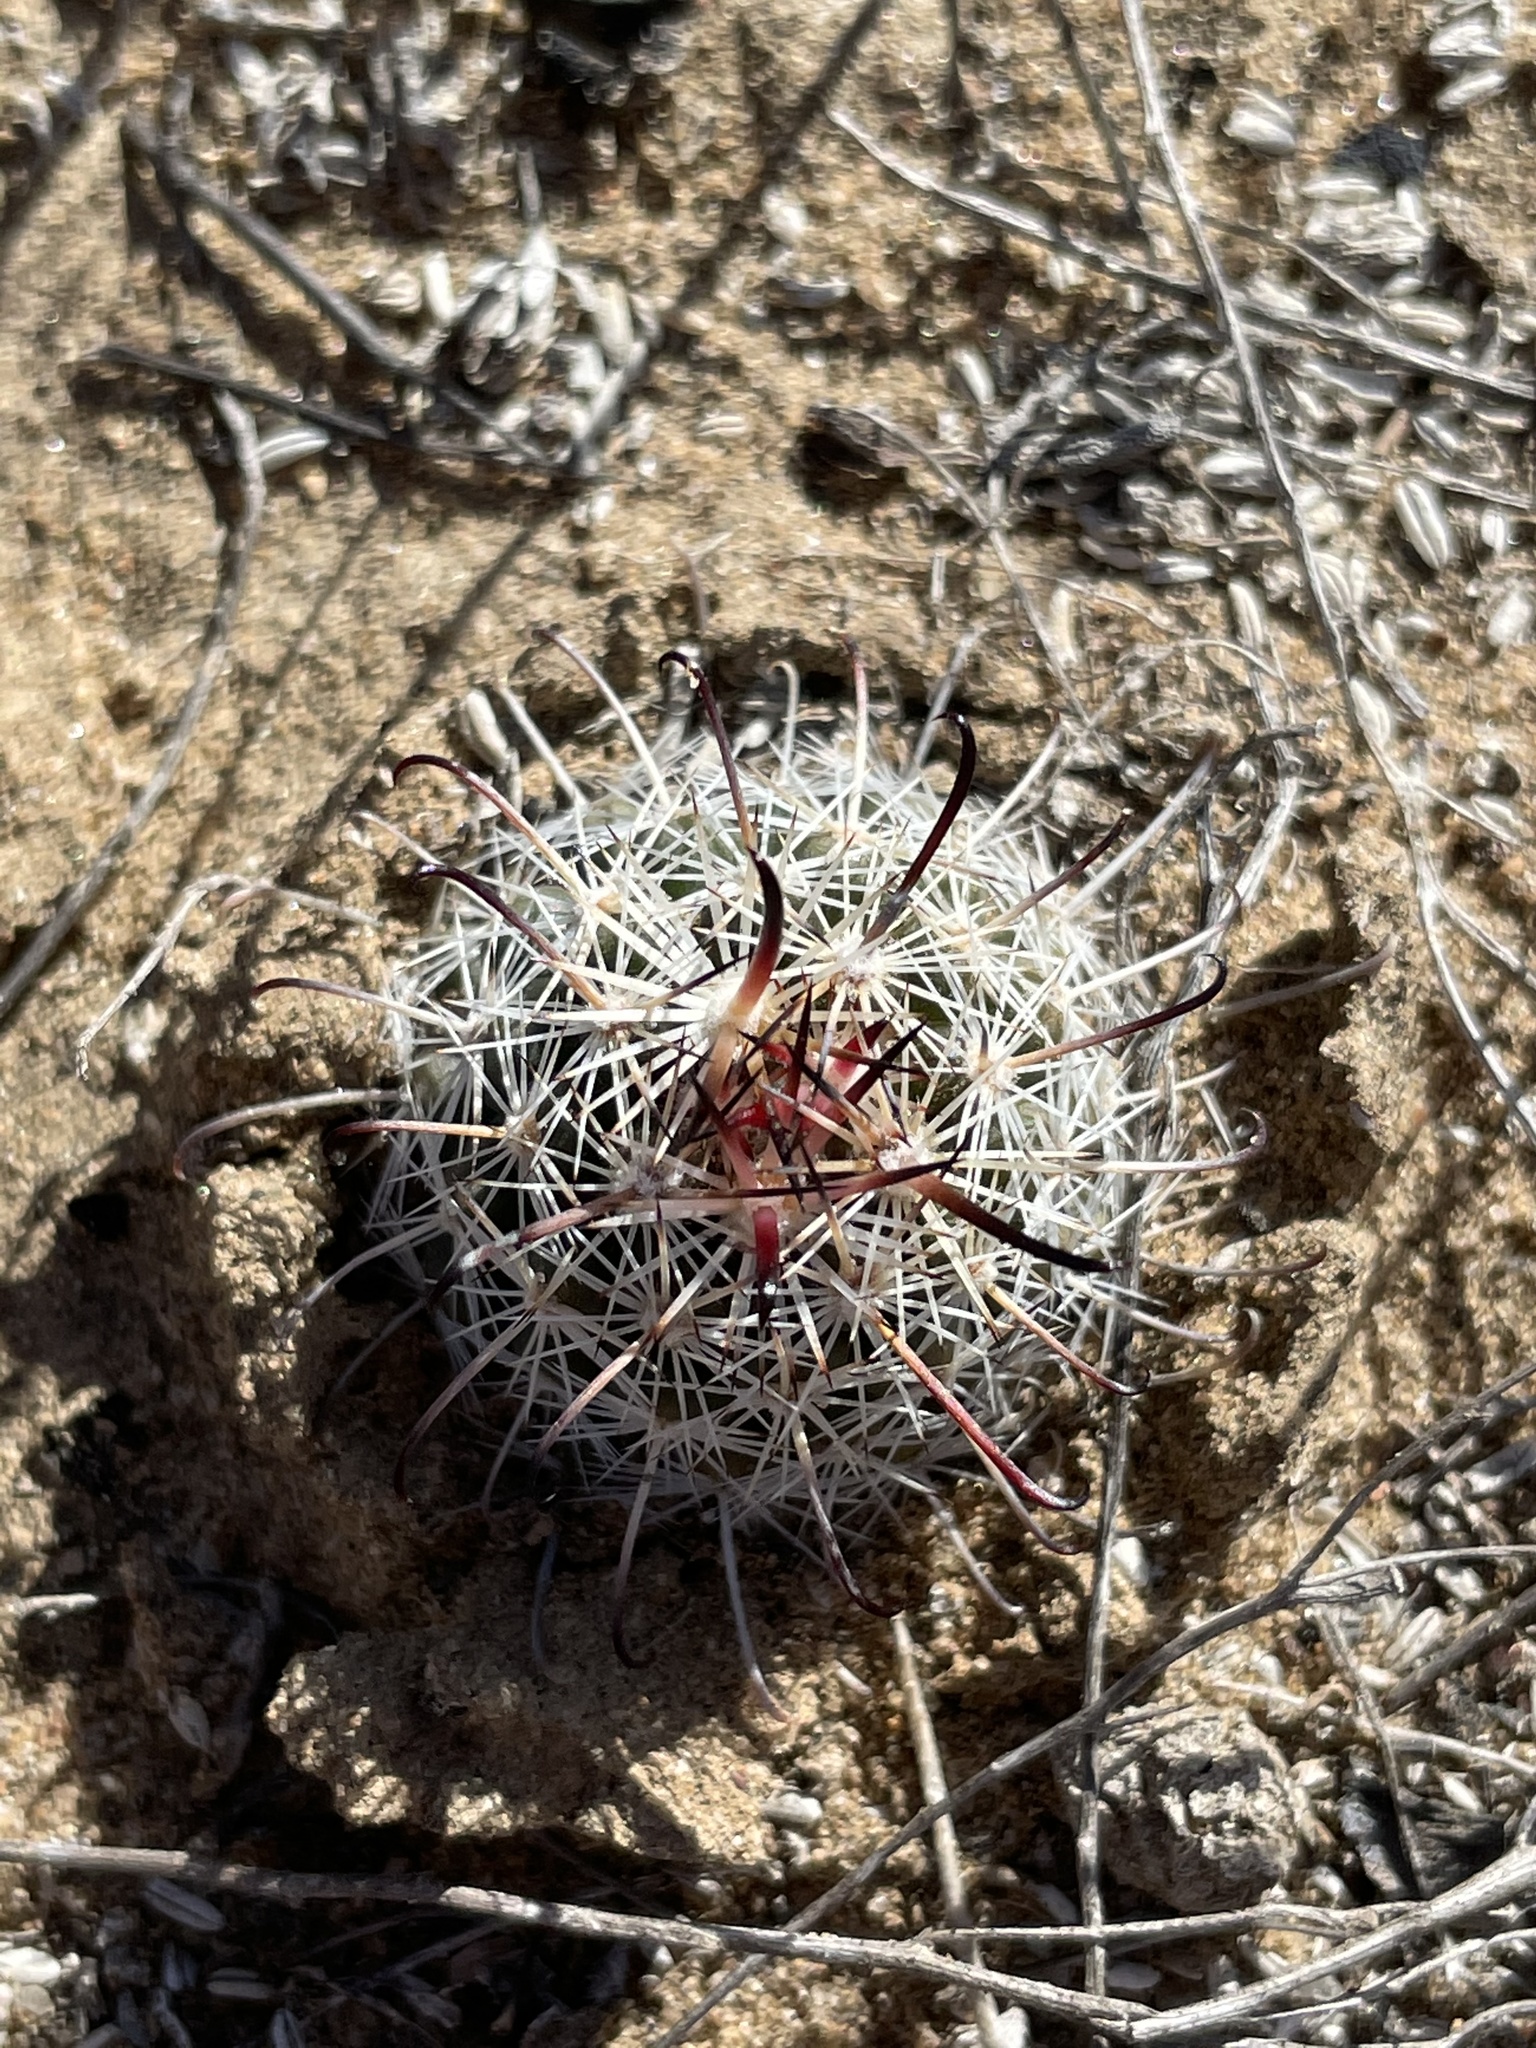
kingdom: Plantae
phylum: Tracheophyta
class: Magnoliopsida
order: Caryophyllales
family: Cactaceae
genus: Cochemiea
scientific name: Cochemiea hutchisoniana
